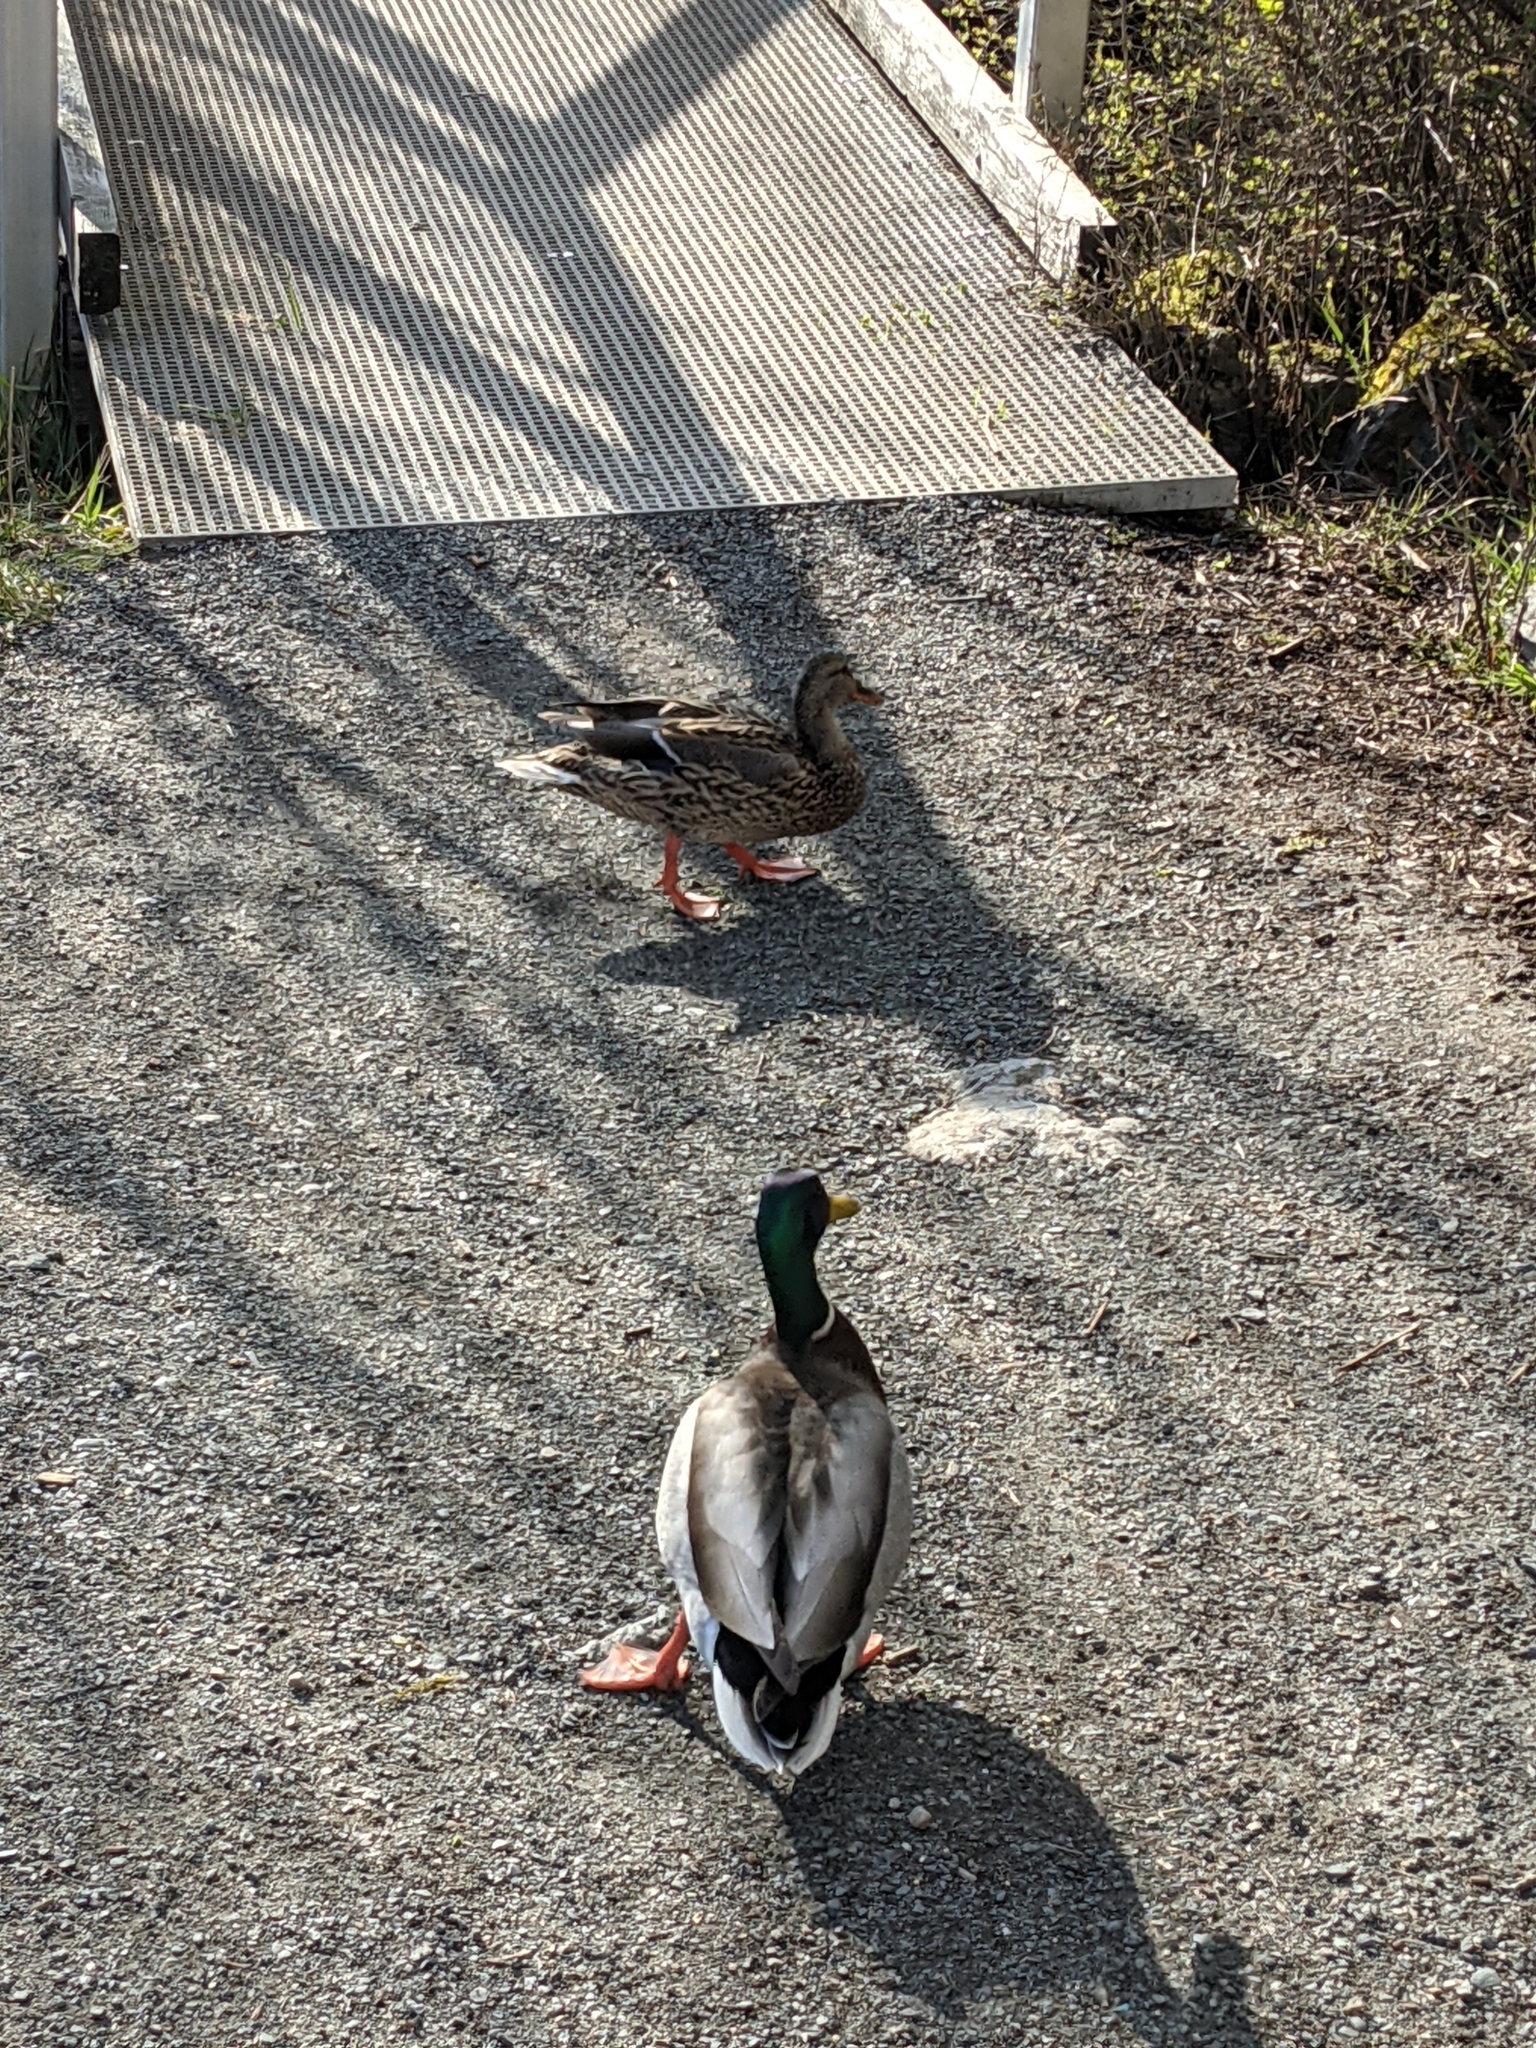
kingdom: Animalia
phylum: Chordata
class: Aves
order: Anseriformes
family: Anatidae
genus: Anas
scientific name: Anas platyrhynchos
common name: Mallard
